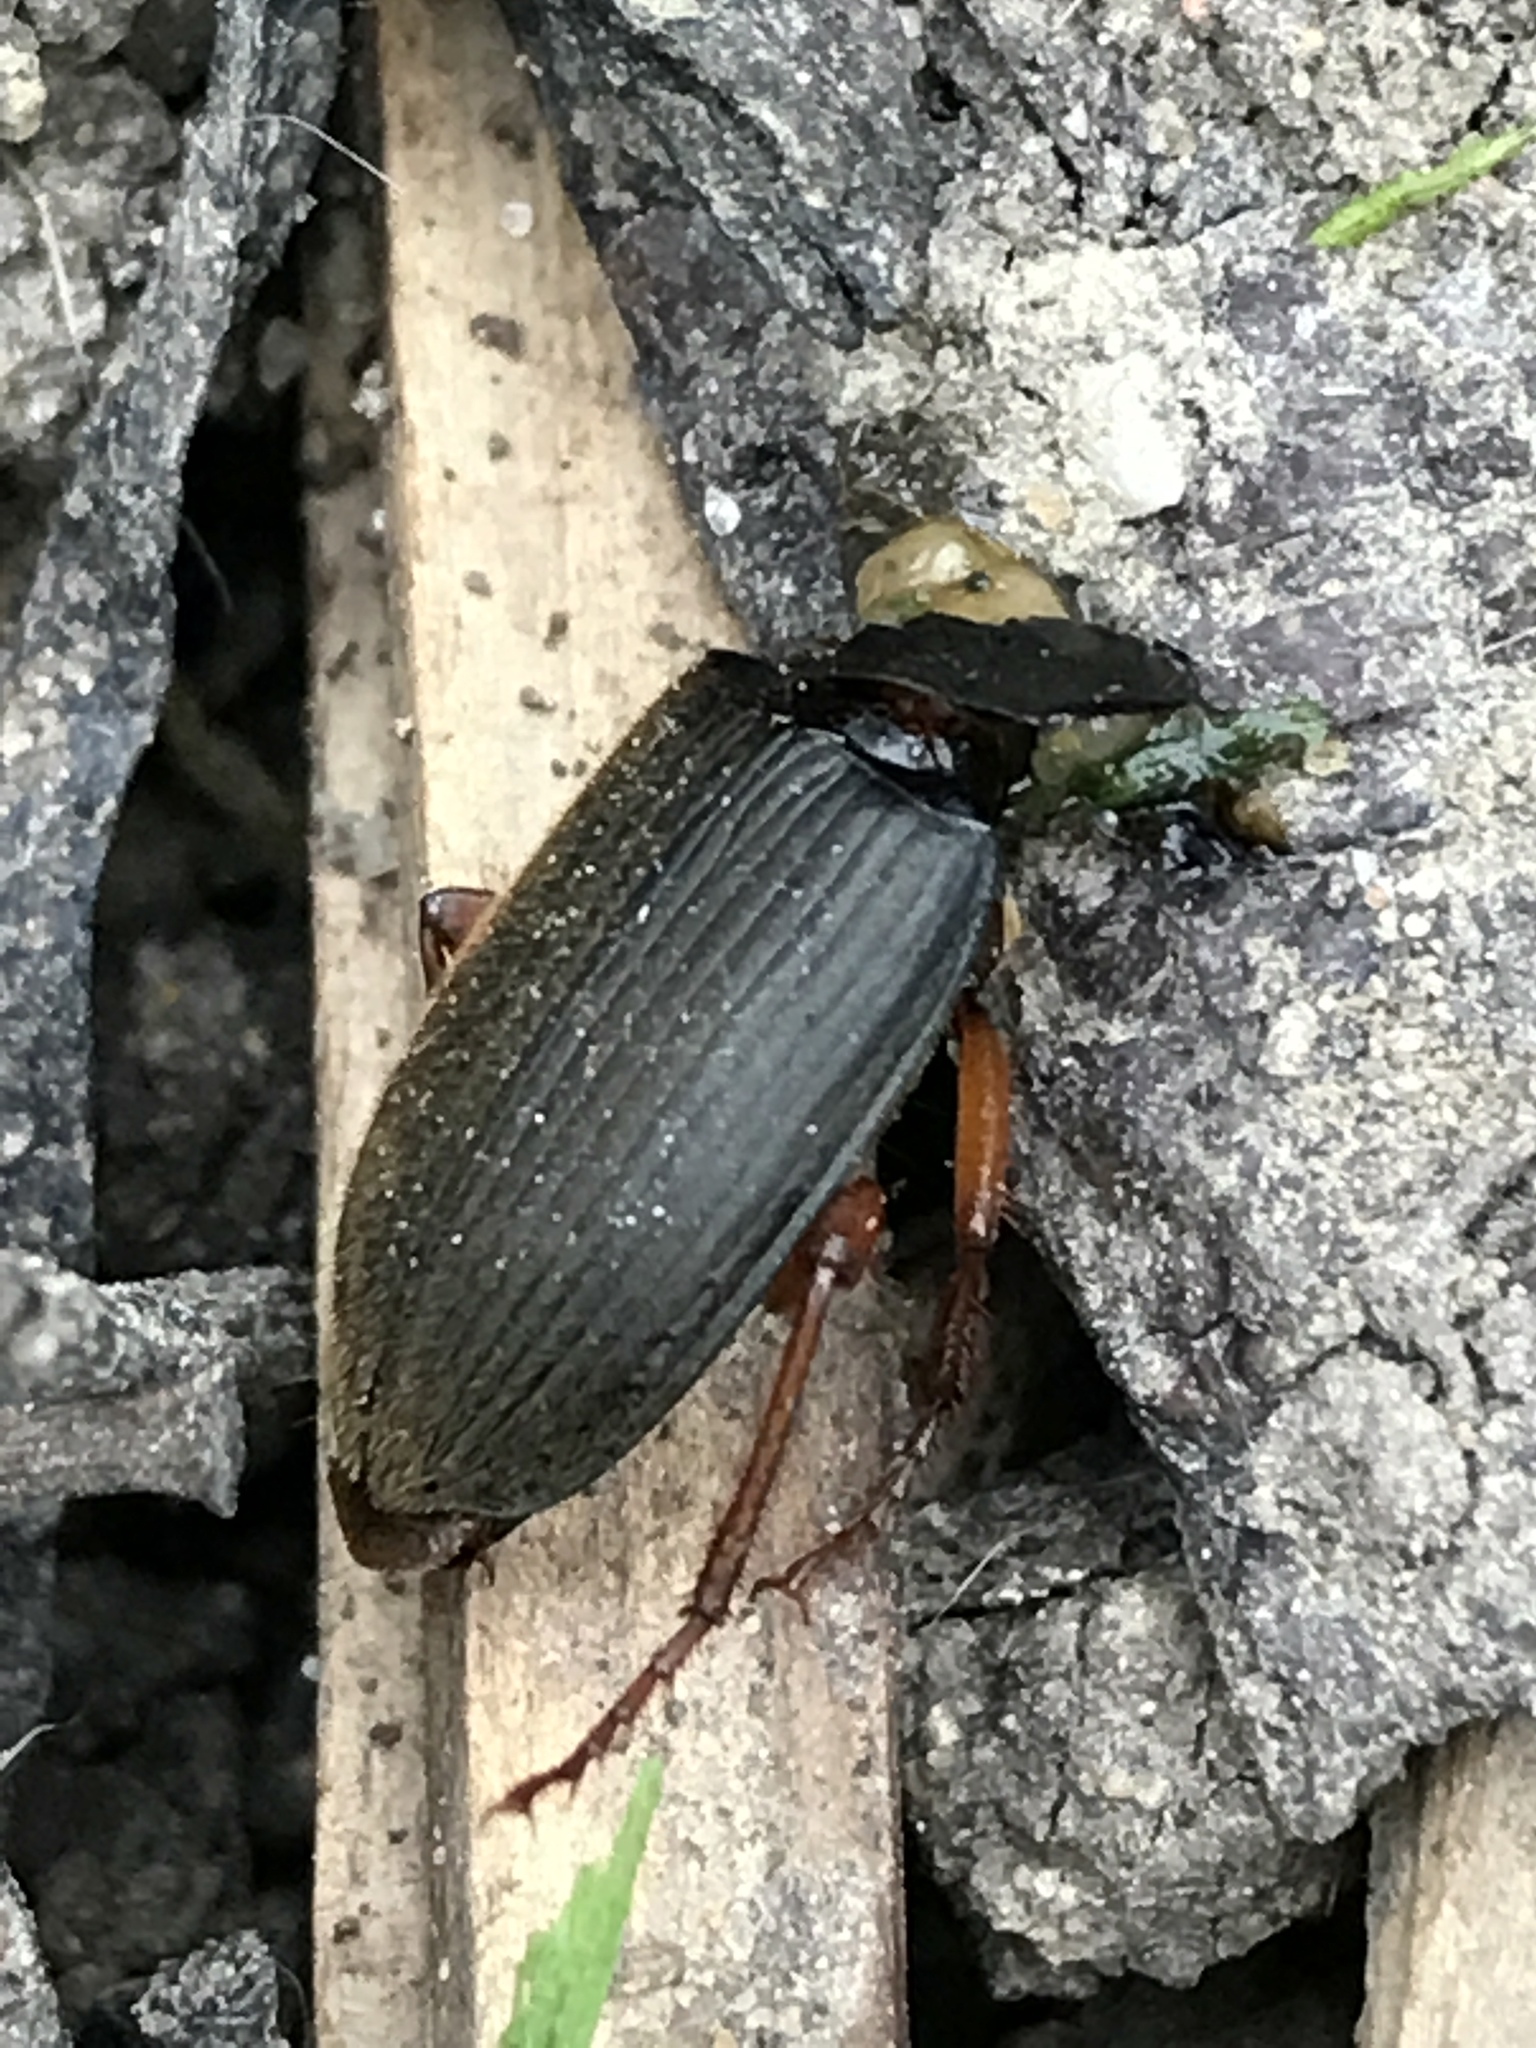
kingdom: Animalia
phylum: Arthropoda
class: Insecta
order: Coleoptera
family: Carabidae
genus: Harpalus
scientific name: Harpalus rufipes
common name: Strawberry harp ground beetle
